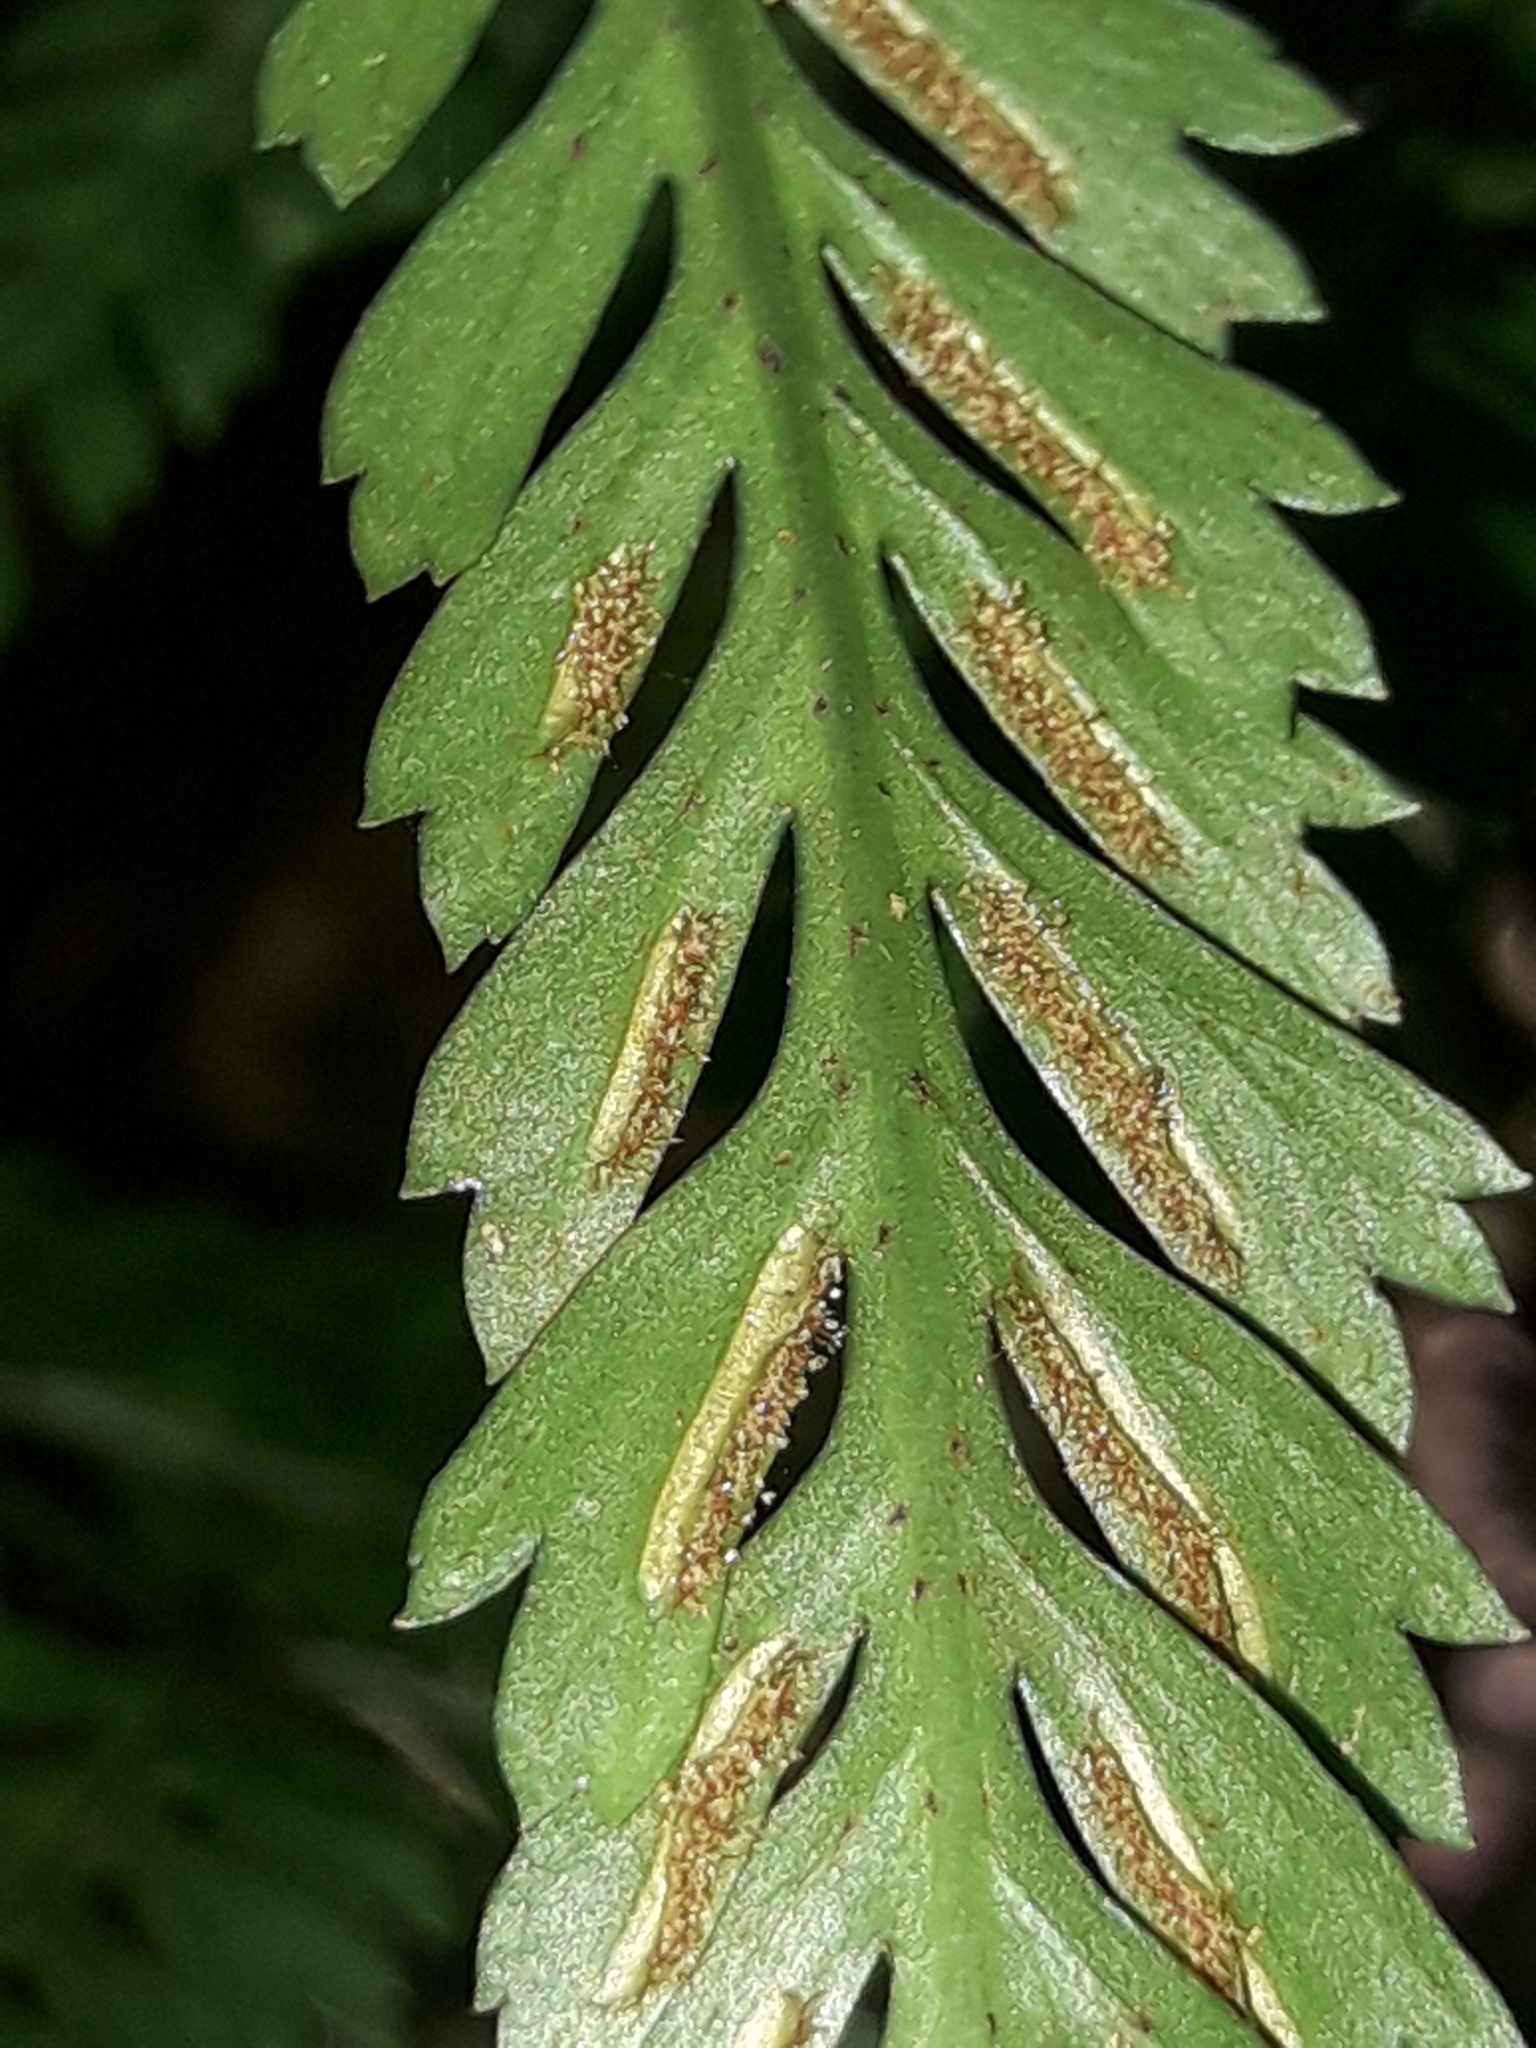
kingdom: Plantae
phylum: Tracheophyta
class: Polypodiopsida
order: Polypodiales
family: Aspleniaceae
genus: Asplenium
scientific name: Asplenium pteridoides
